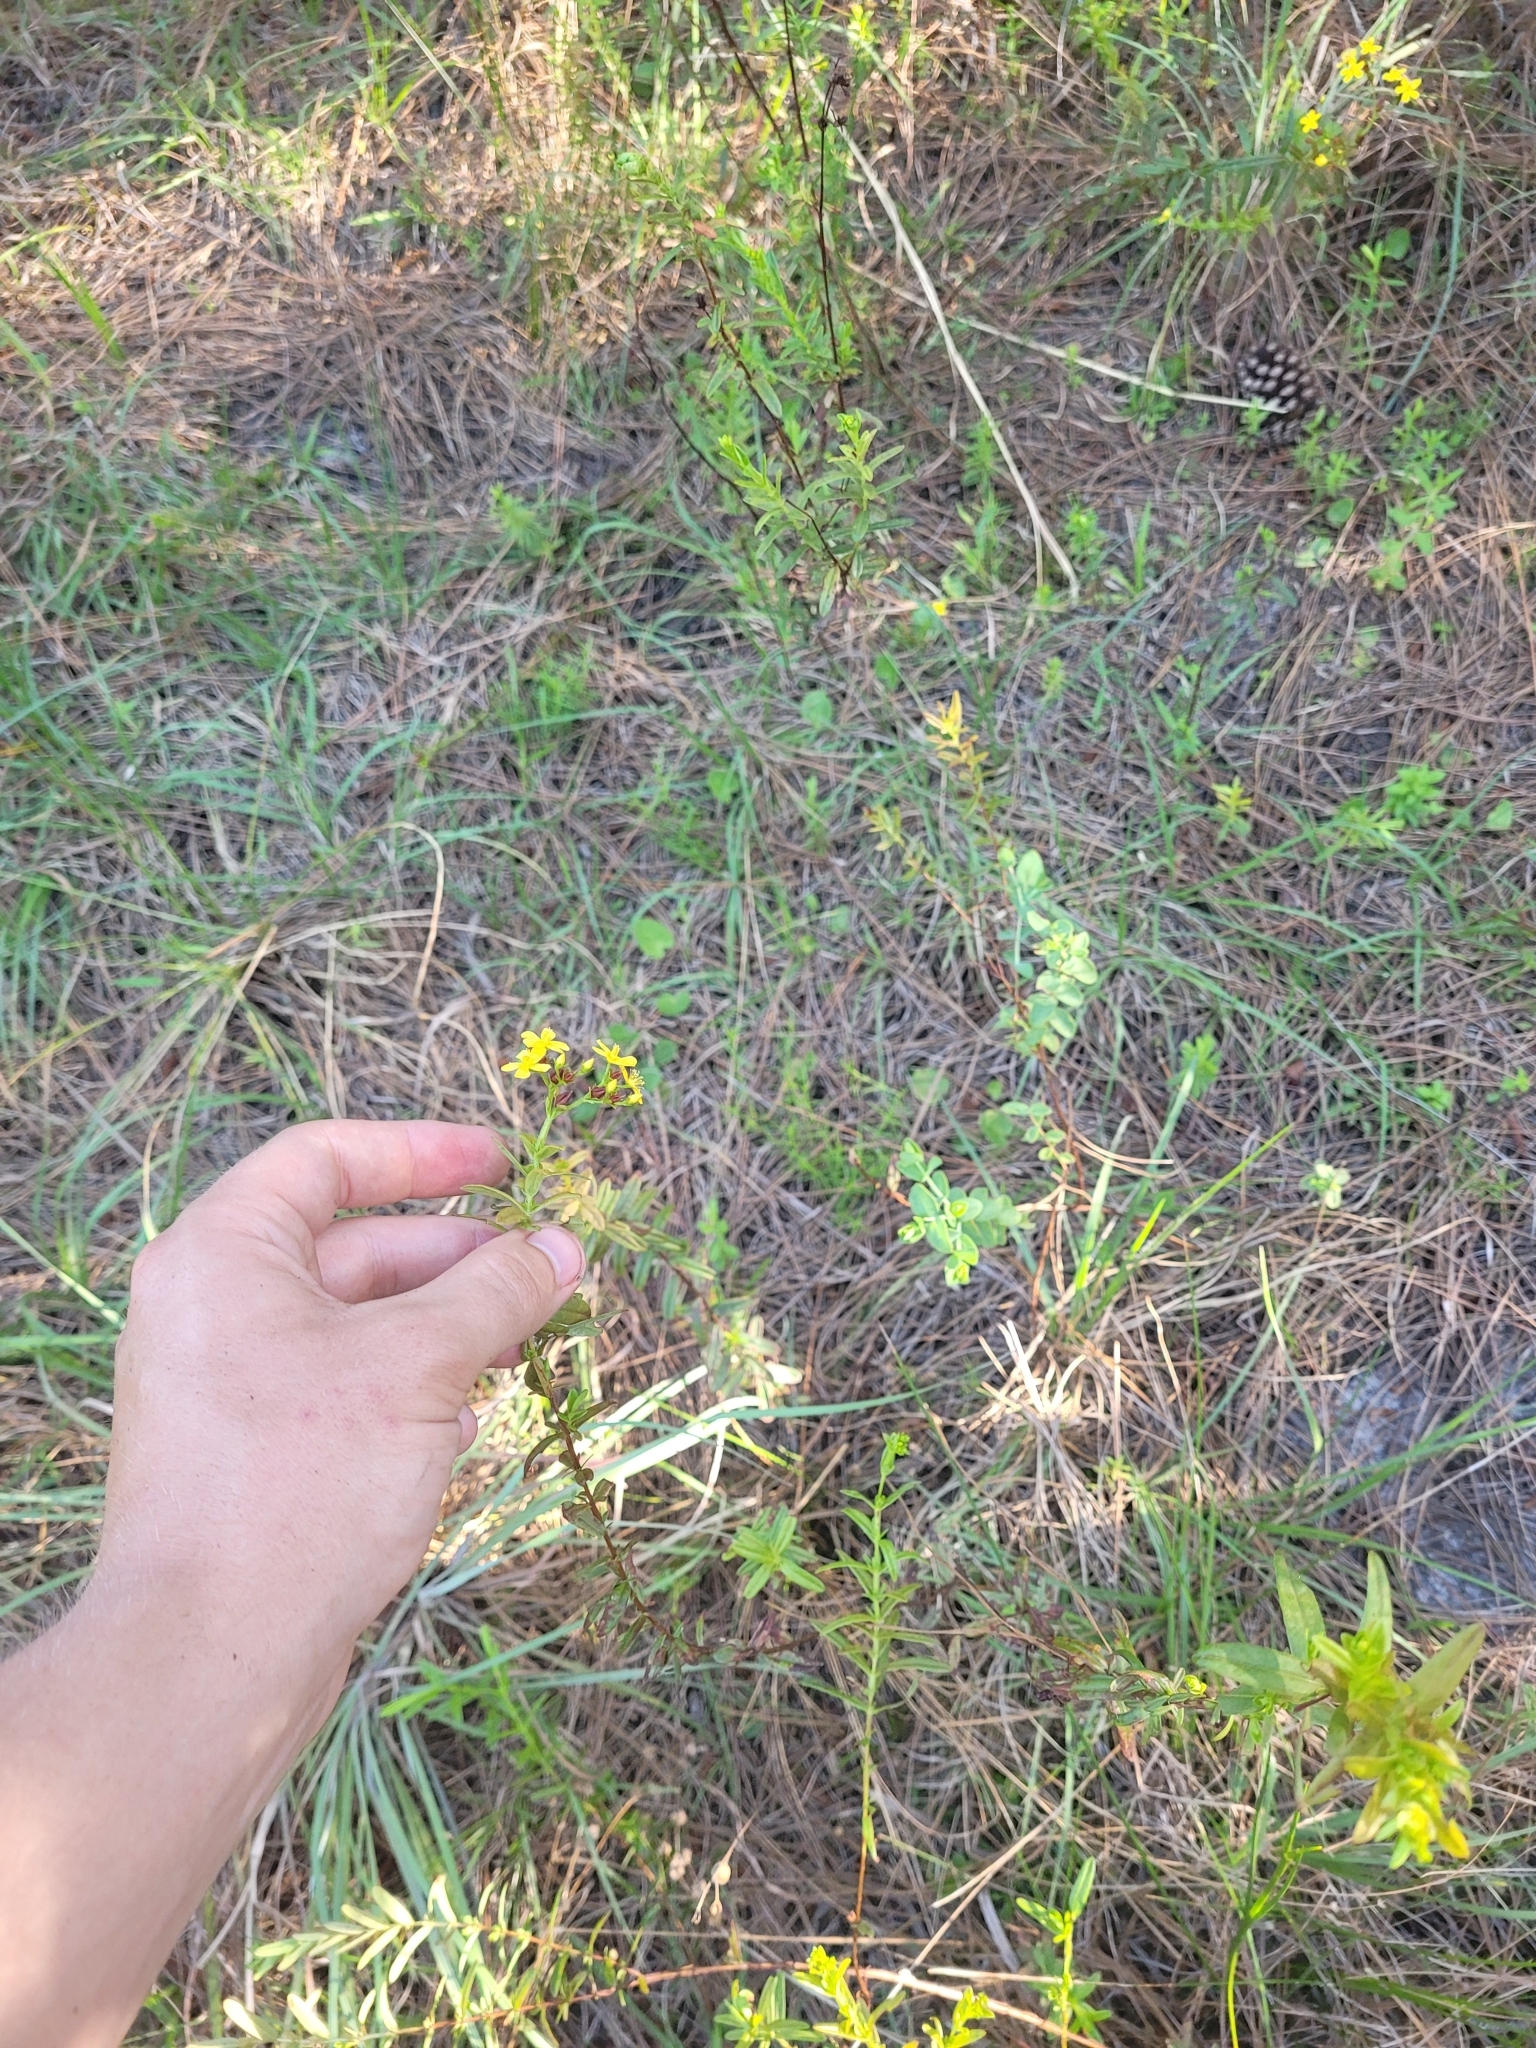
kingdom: Plantae
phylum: Tracheophyta
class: Magnoliopsida
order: Malpighiales
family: Hypericaceae
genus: Hypericum
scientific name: Hypericum cistifolium
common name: Round-pod st. john's-wort
